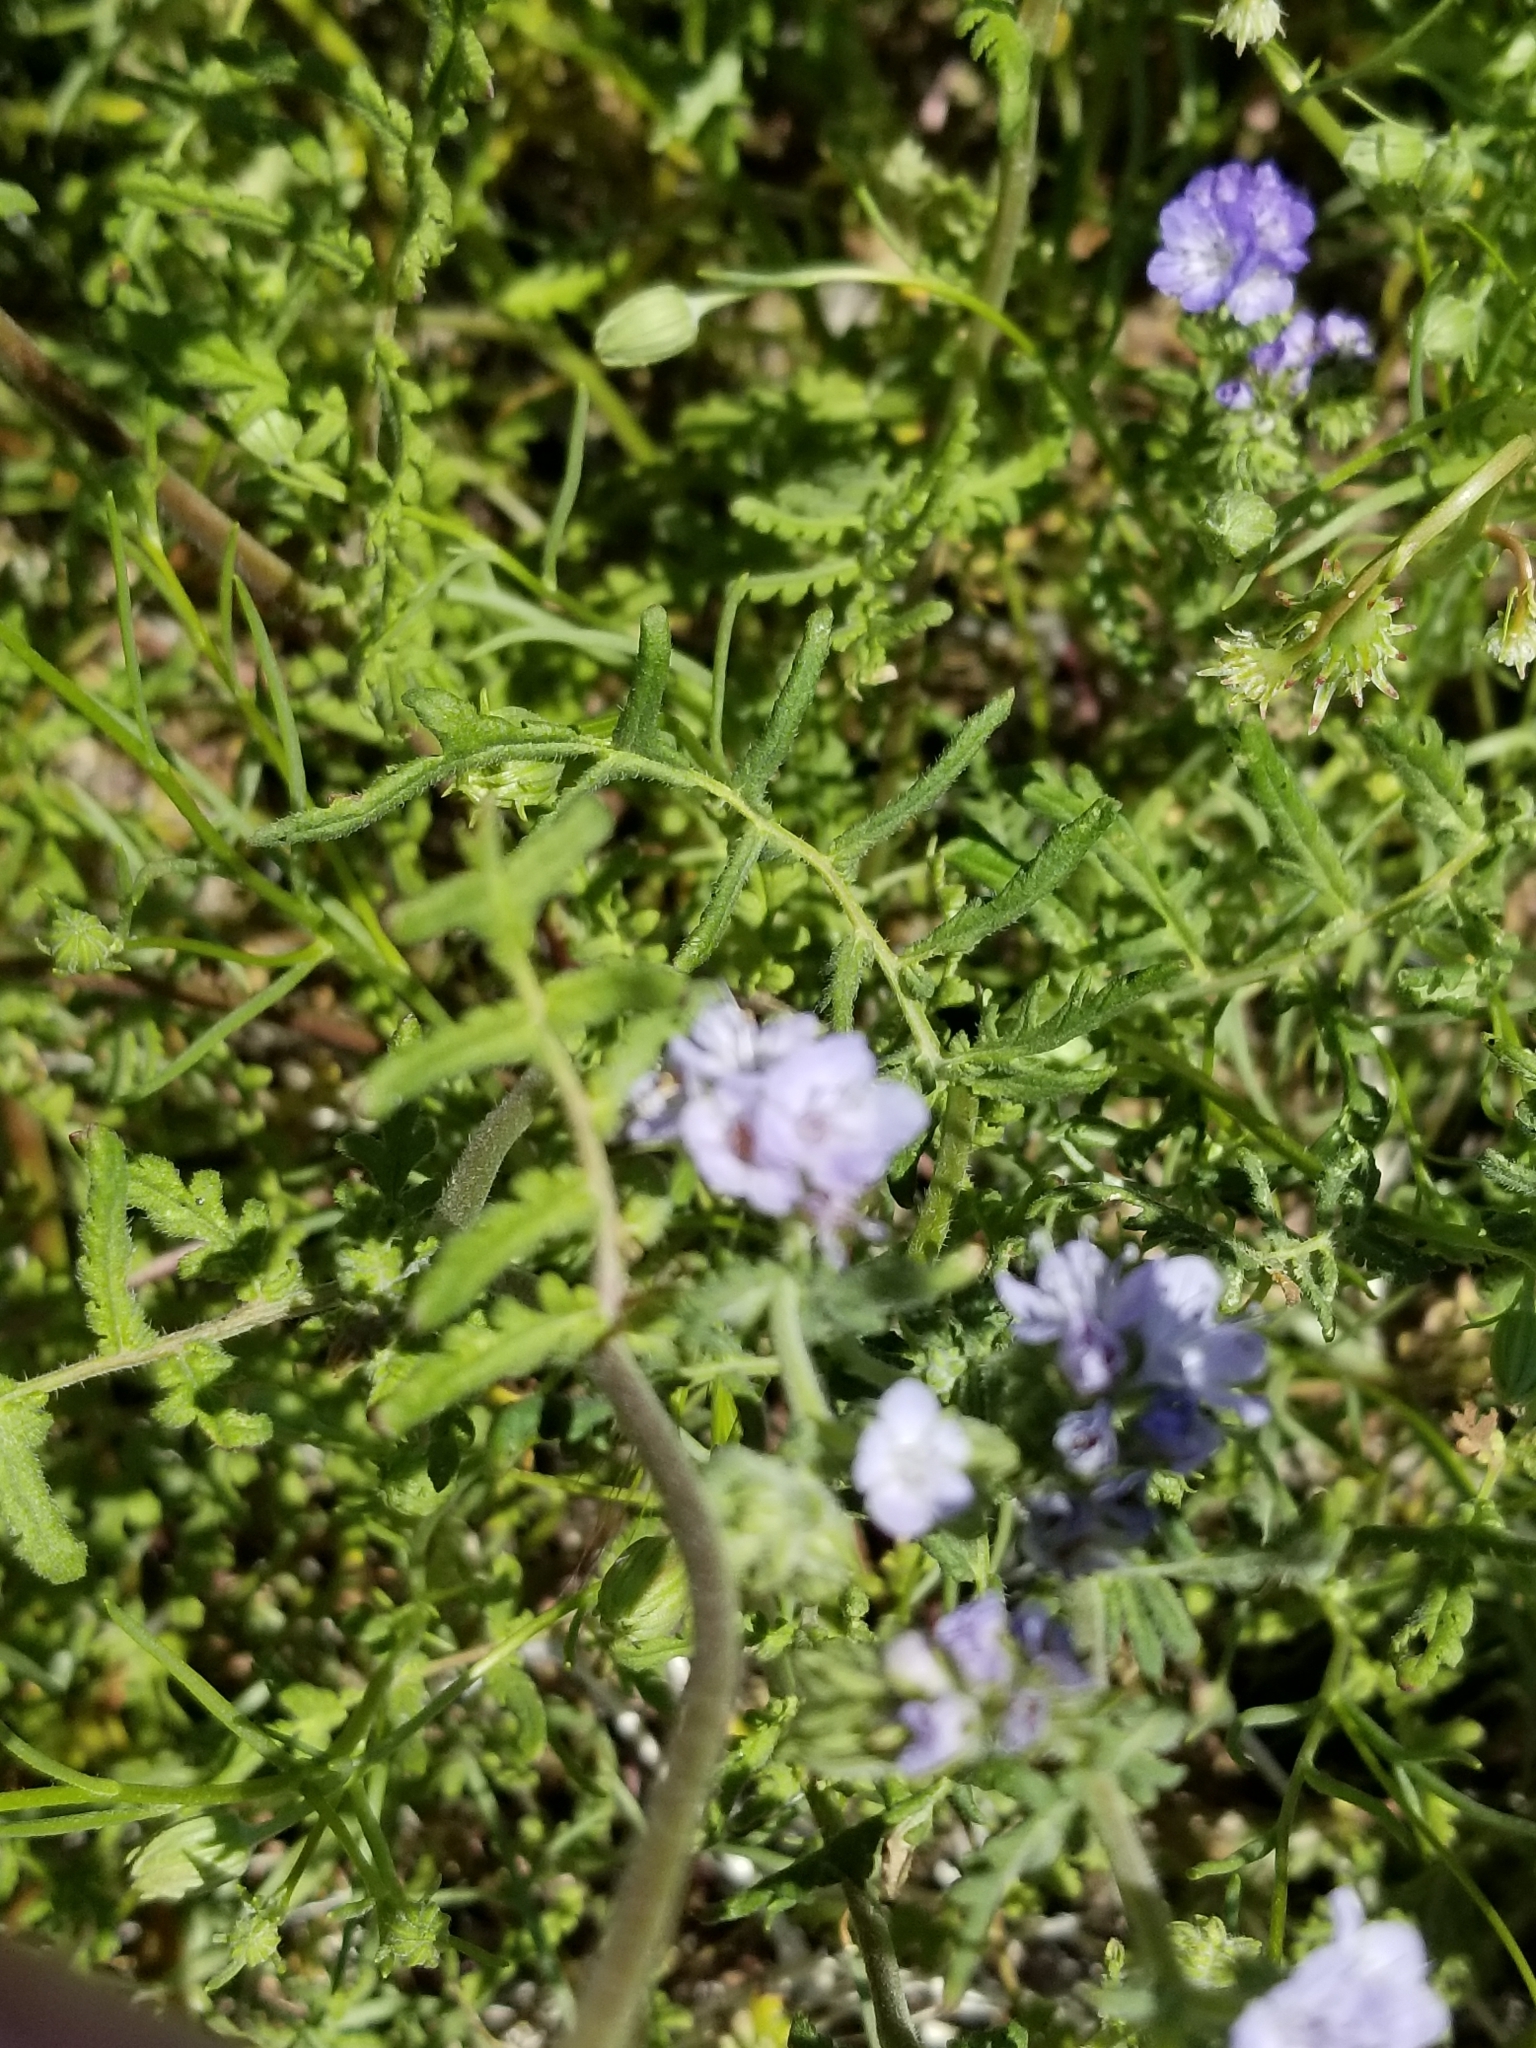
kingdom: Plantae
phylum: Tracheophyta
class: Magnoliopsida
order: Boraginales
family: Hydrophyllaceae
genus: Phacelia
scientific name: Phacelia distans
